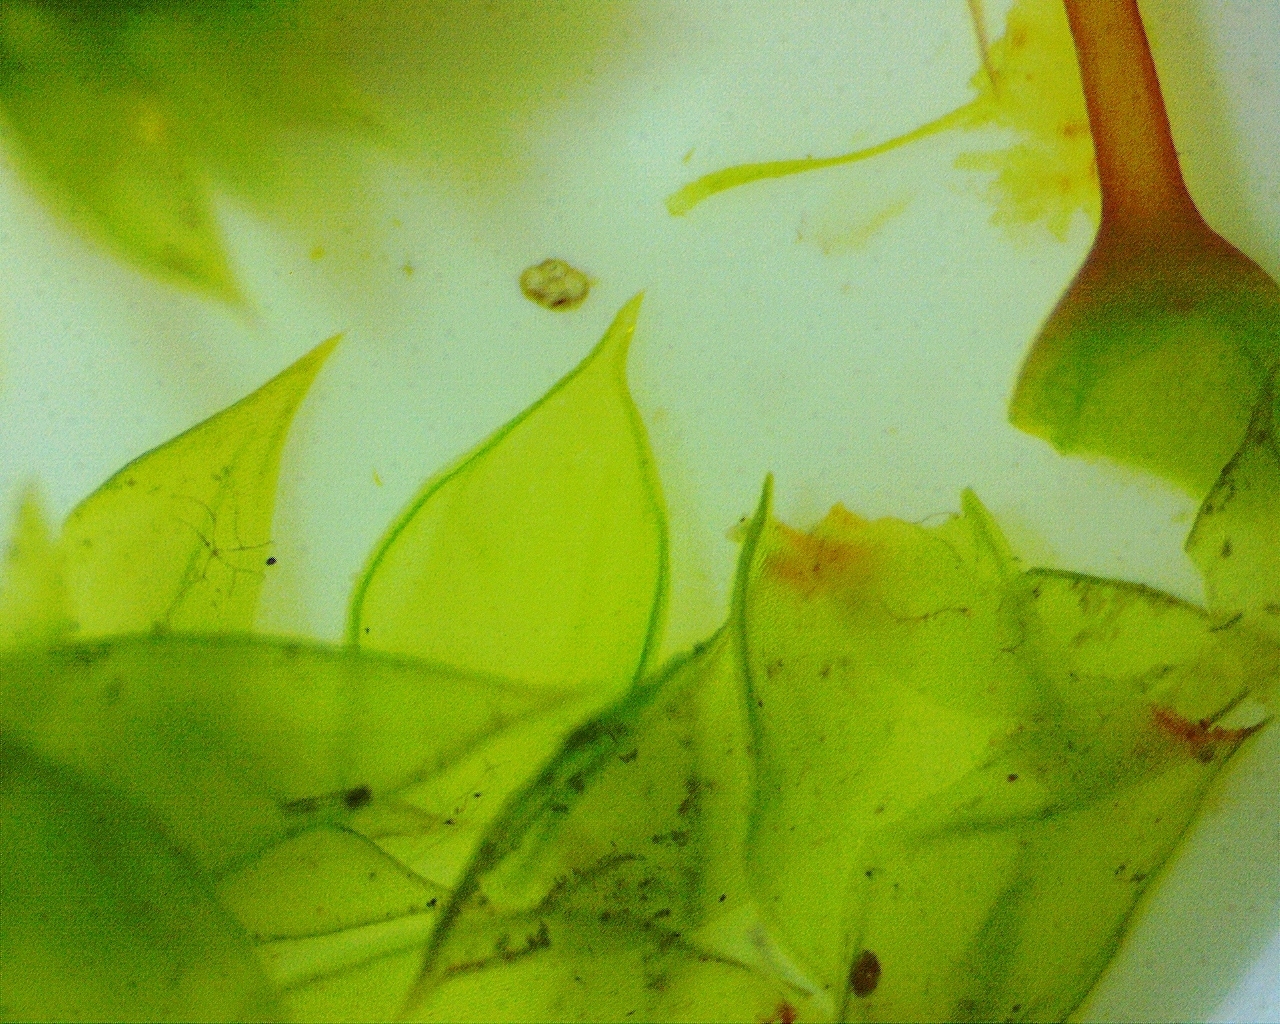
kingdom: Plantae
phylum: Bryophyta
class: Bryopsida
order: Hypnales
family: Leucodontaceae
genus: Leucodon
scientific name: Leucodon julaceus
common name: Smooth hook moss
